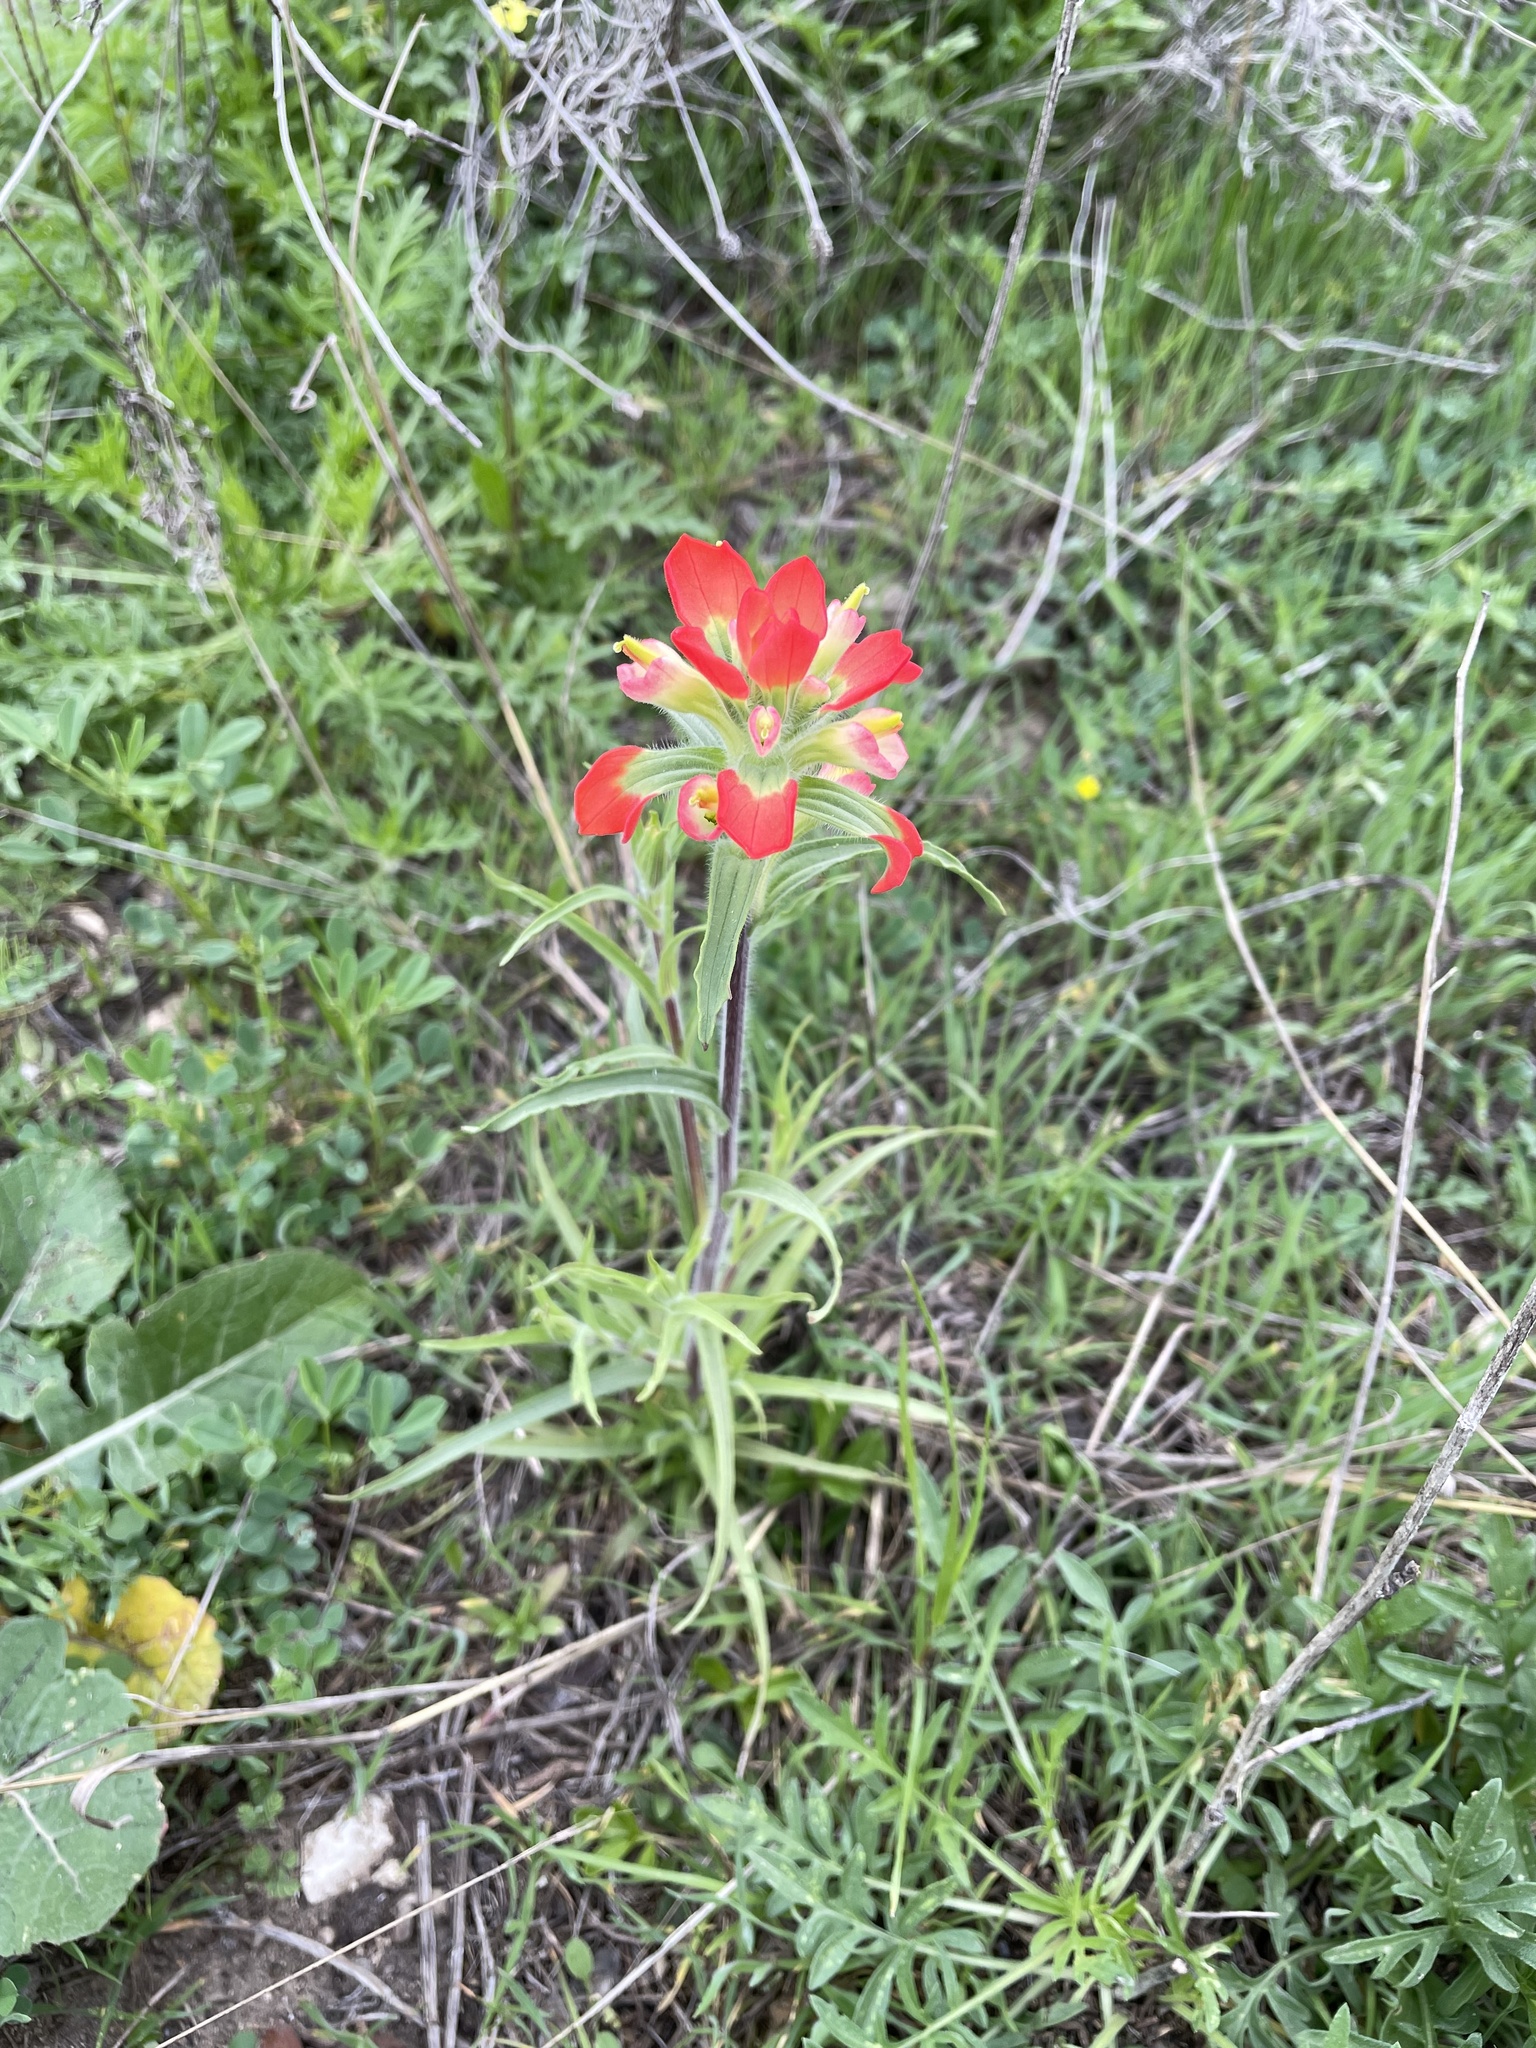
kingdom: Plantae
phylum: Tracheophyta
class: Magnoliopsida
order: Lamiales
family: Orobanchaceae
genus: Castilleja
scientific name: Castilleja indivisa
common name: Texas paintbrush
